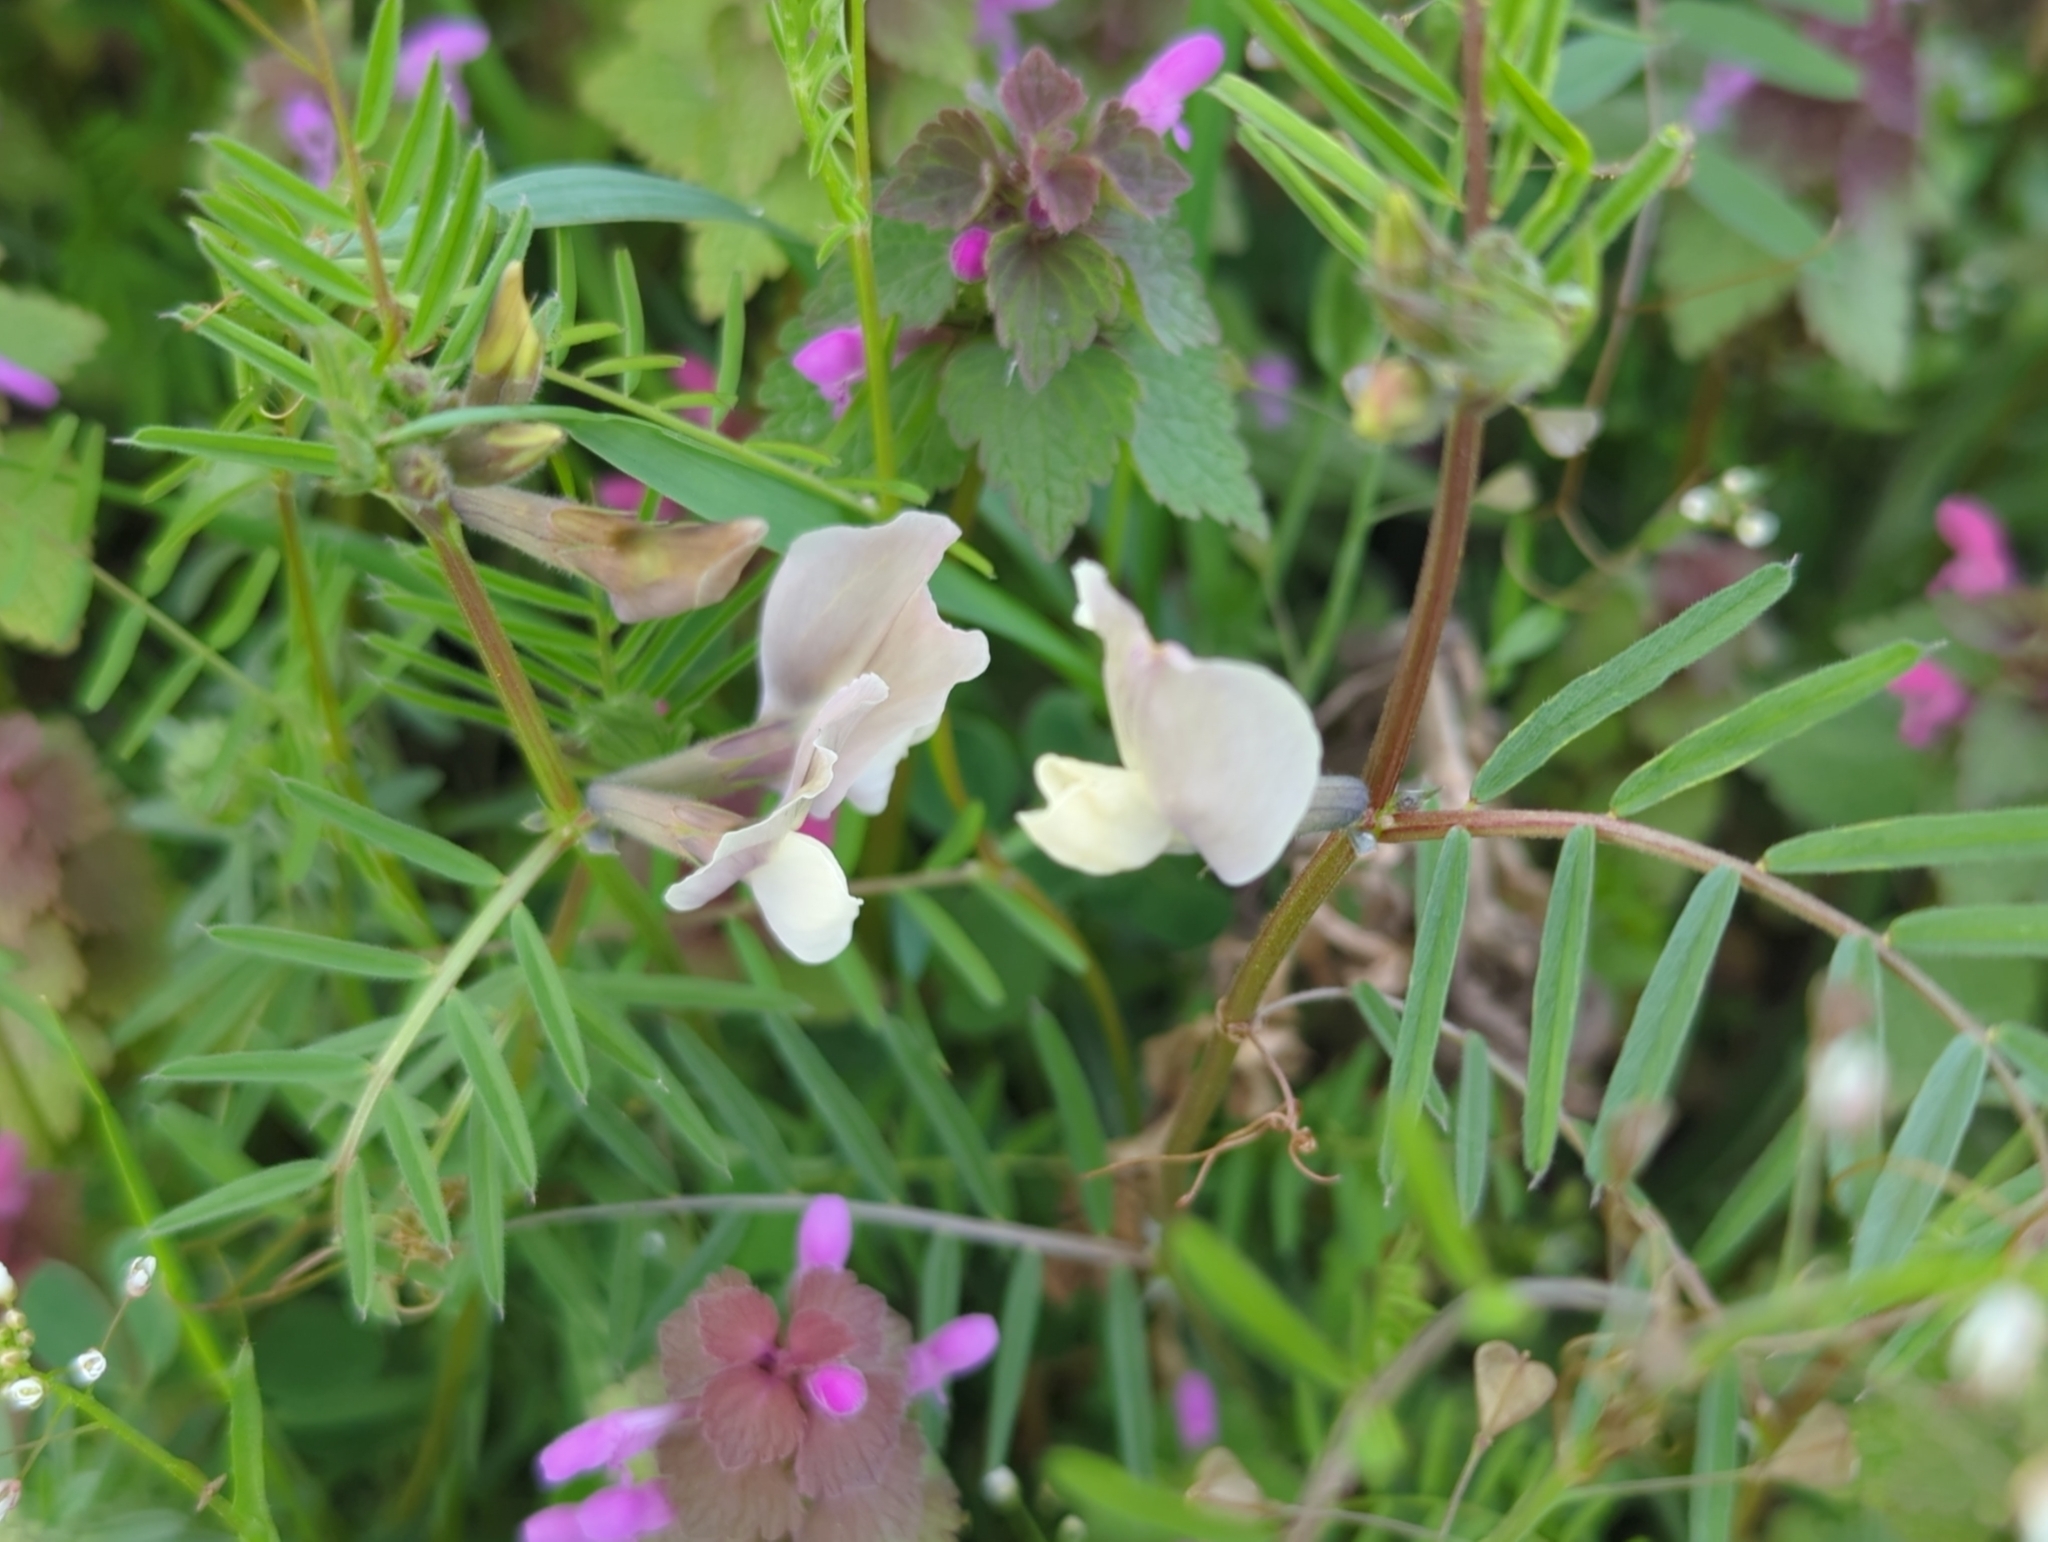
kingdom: Plantae
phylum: Tracheophyta
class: Magnoliopsida
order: Fabales
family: Fabaceae
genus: Vicia
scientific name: Vicia grandiflora
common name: Large yellow vetch
